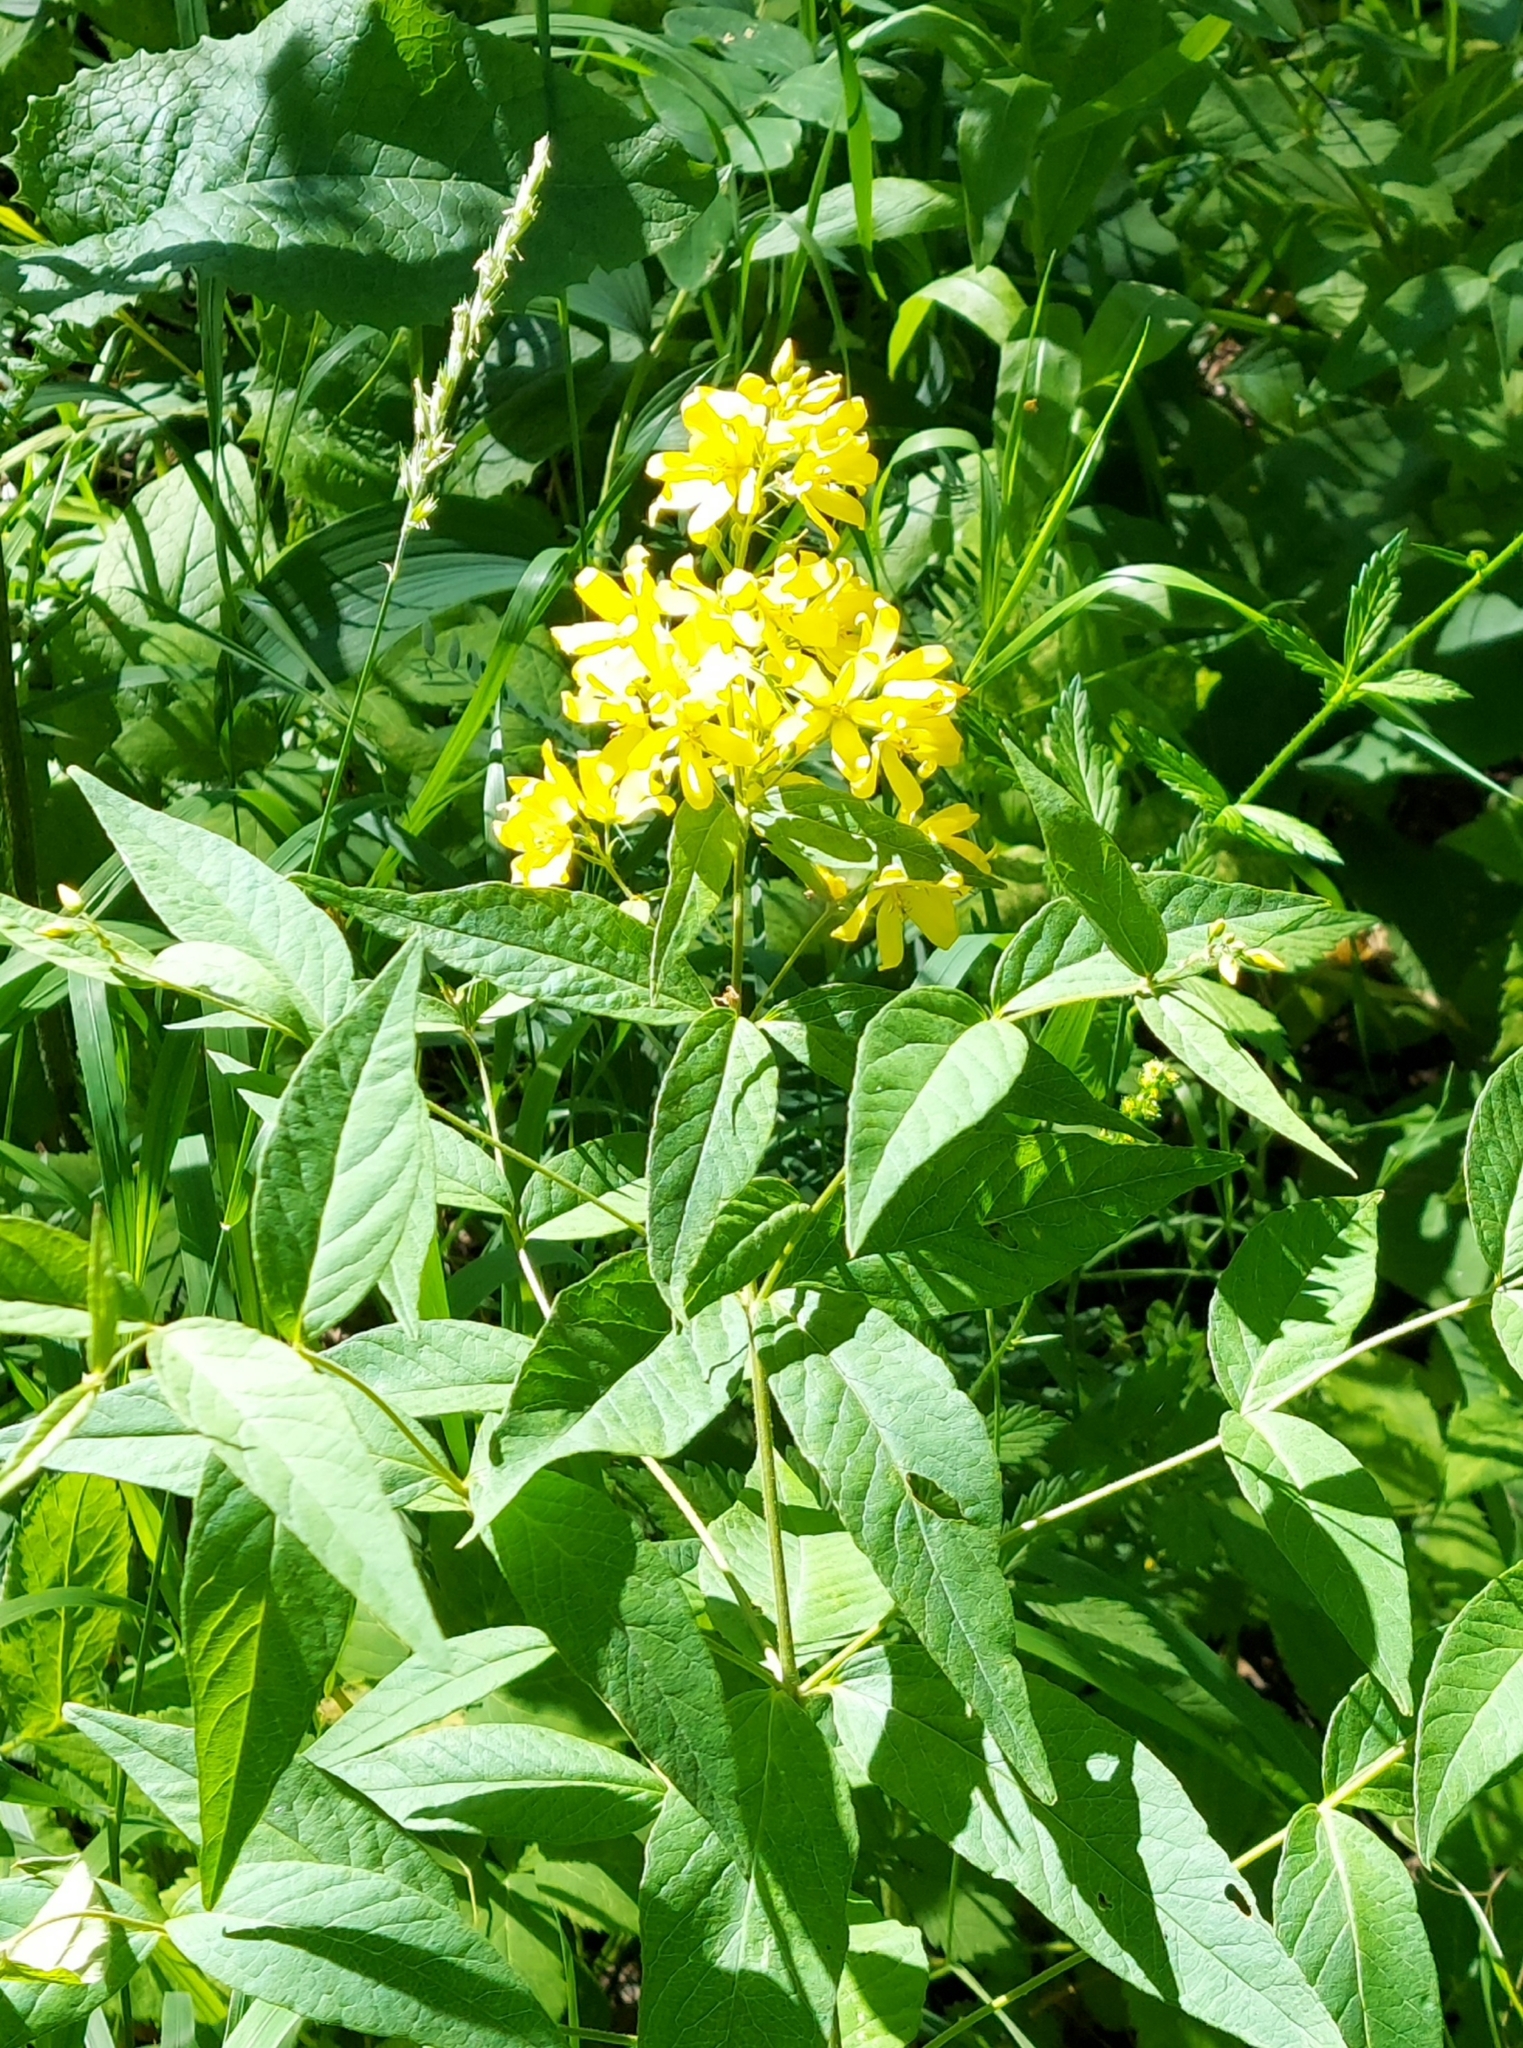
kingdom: Plantae
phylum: Tracheophyta
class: Magnoliopsida
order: Ericales
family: Primulaceae
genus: Lysimachia
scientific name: Lysimachia vulgaris
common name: Yellow loosestrife
